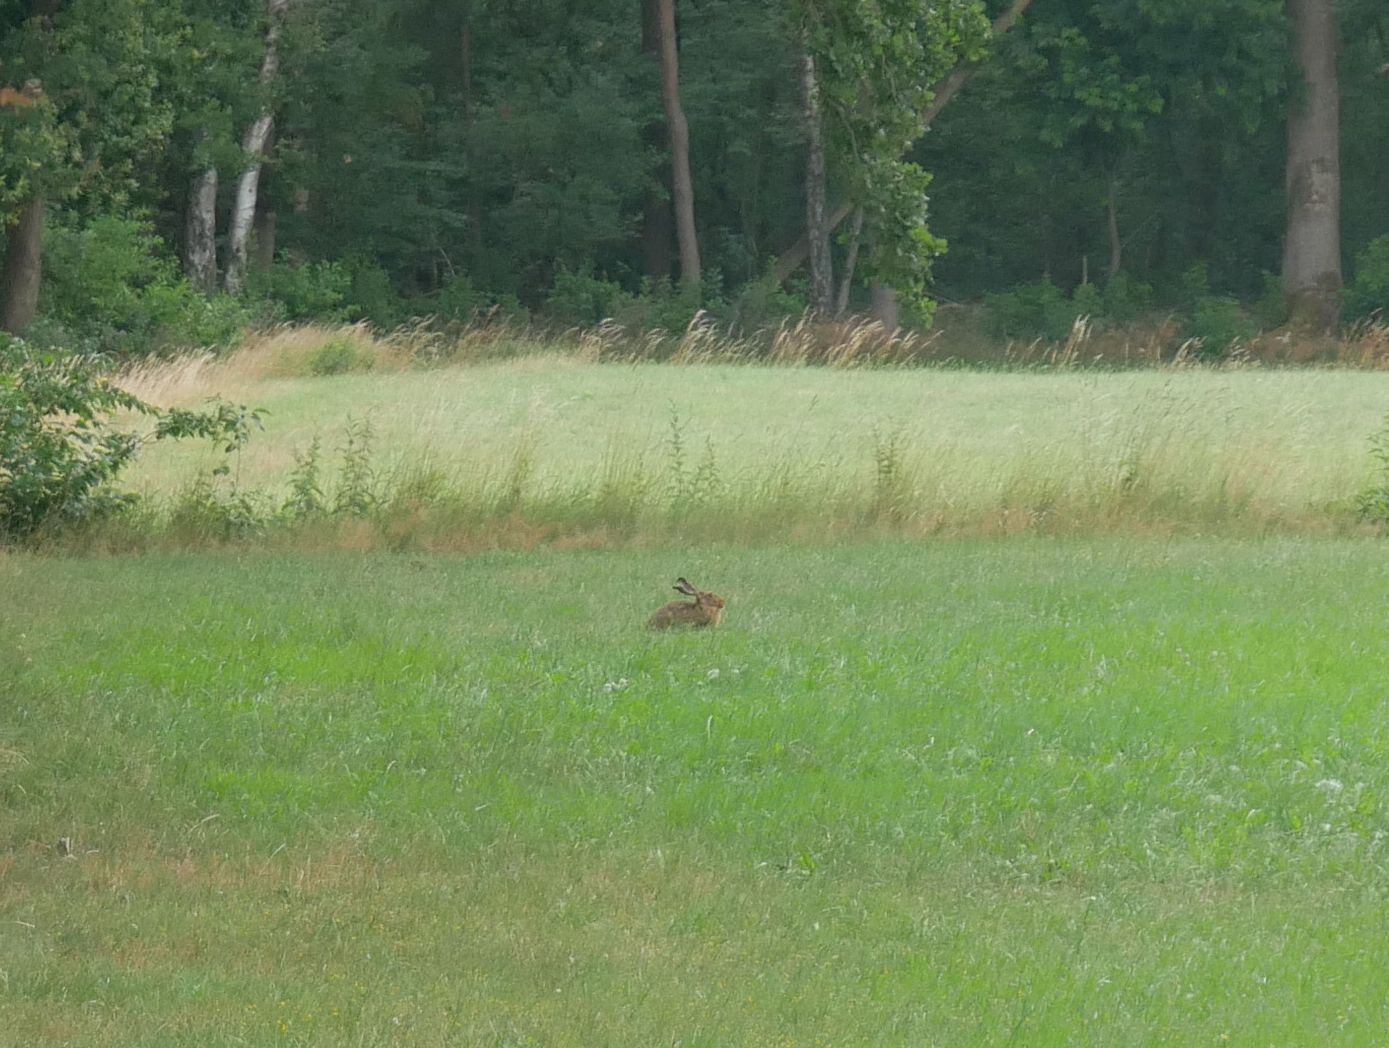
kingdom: Animalia
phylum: Chordata
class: Mammalia
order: Lagomorpha
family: Leporidae
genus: Lepus
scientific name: Lepus europaeus
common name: European hare
